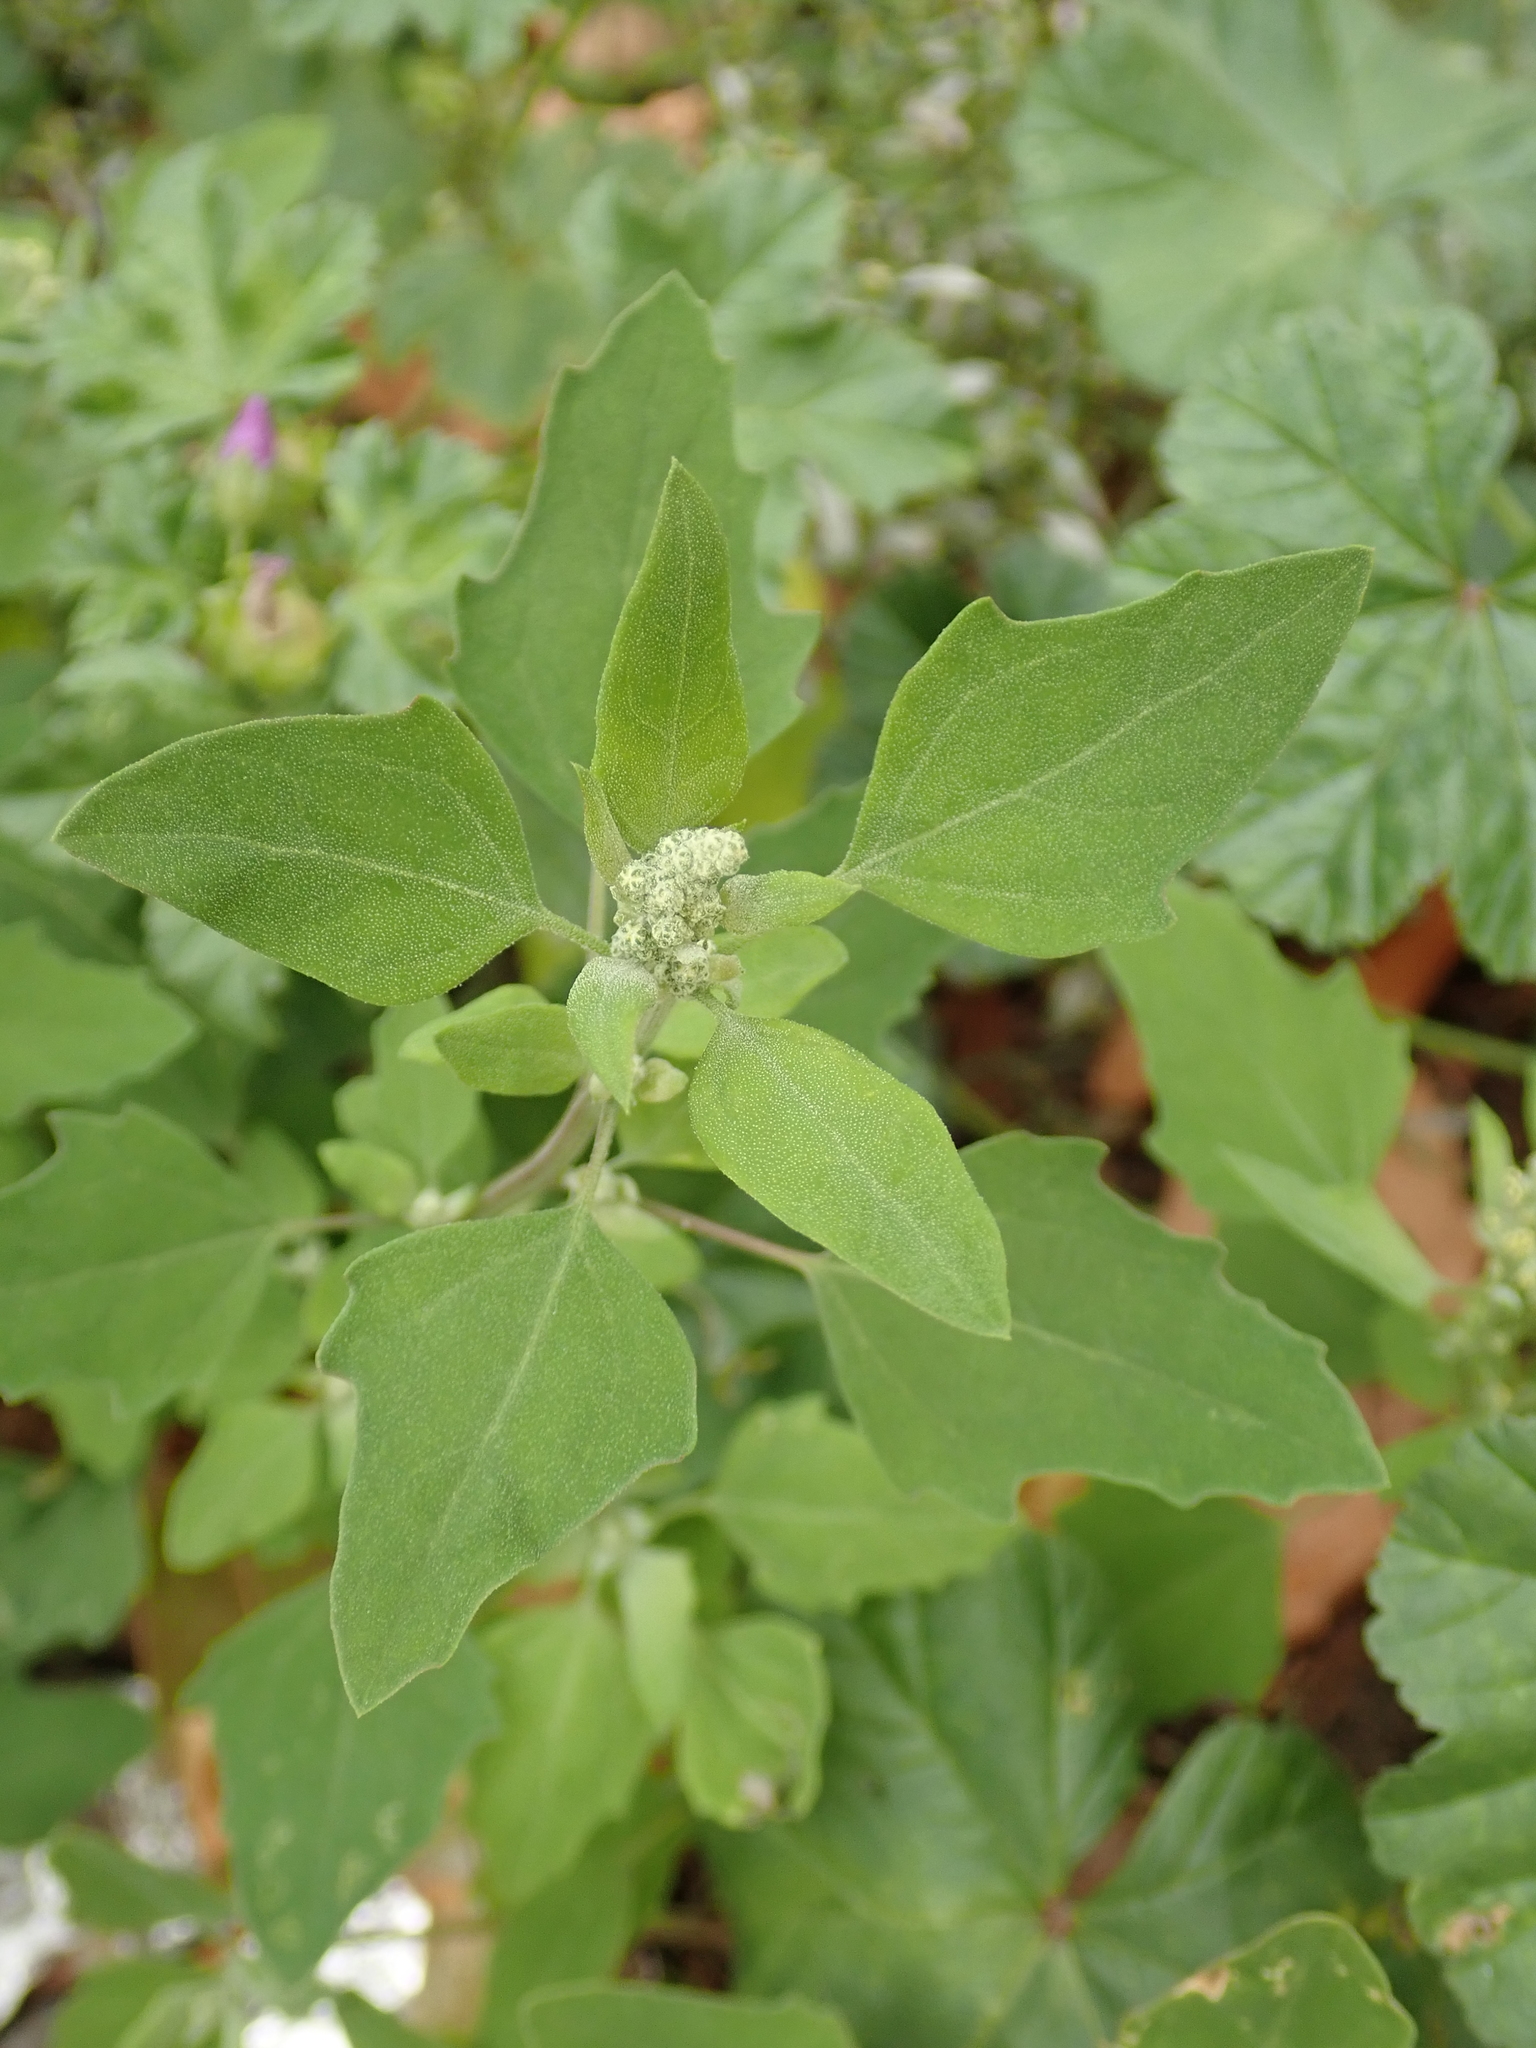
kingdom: Plantae
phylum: Tracheophyta
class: Magnoliopsida
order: Caryophyllales
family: Amaranthaceae
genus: Chenopodium
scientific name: Chenopodium album
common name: Fat-hen
